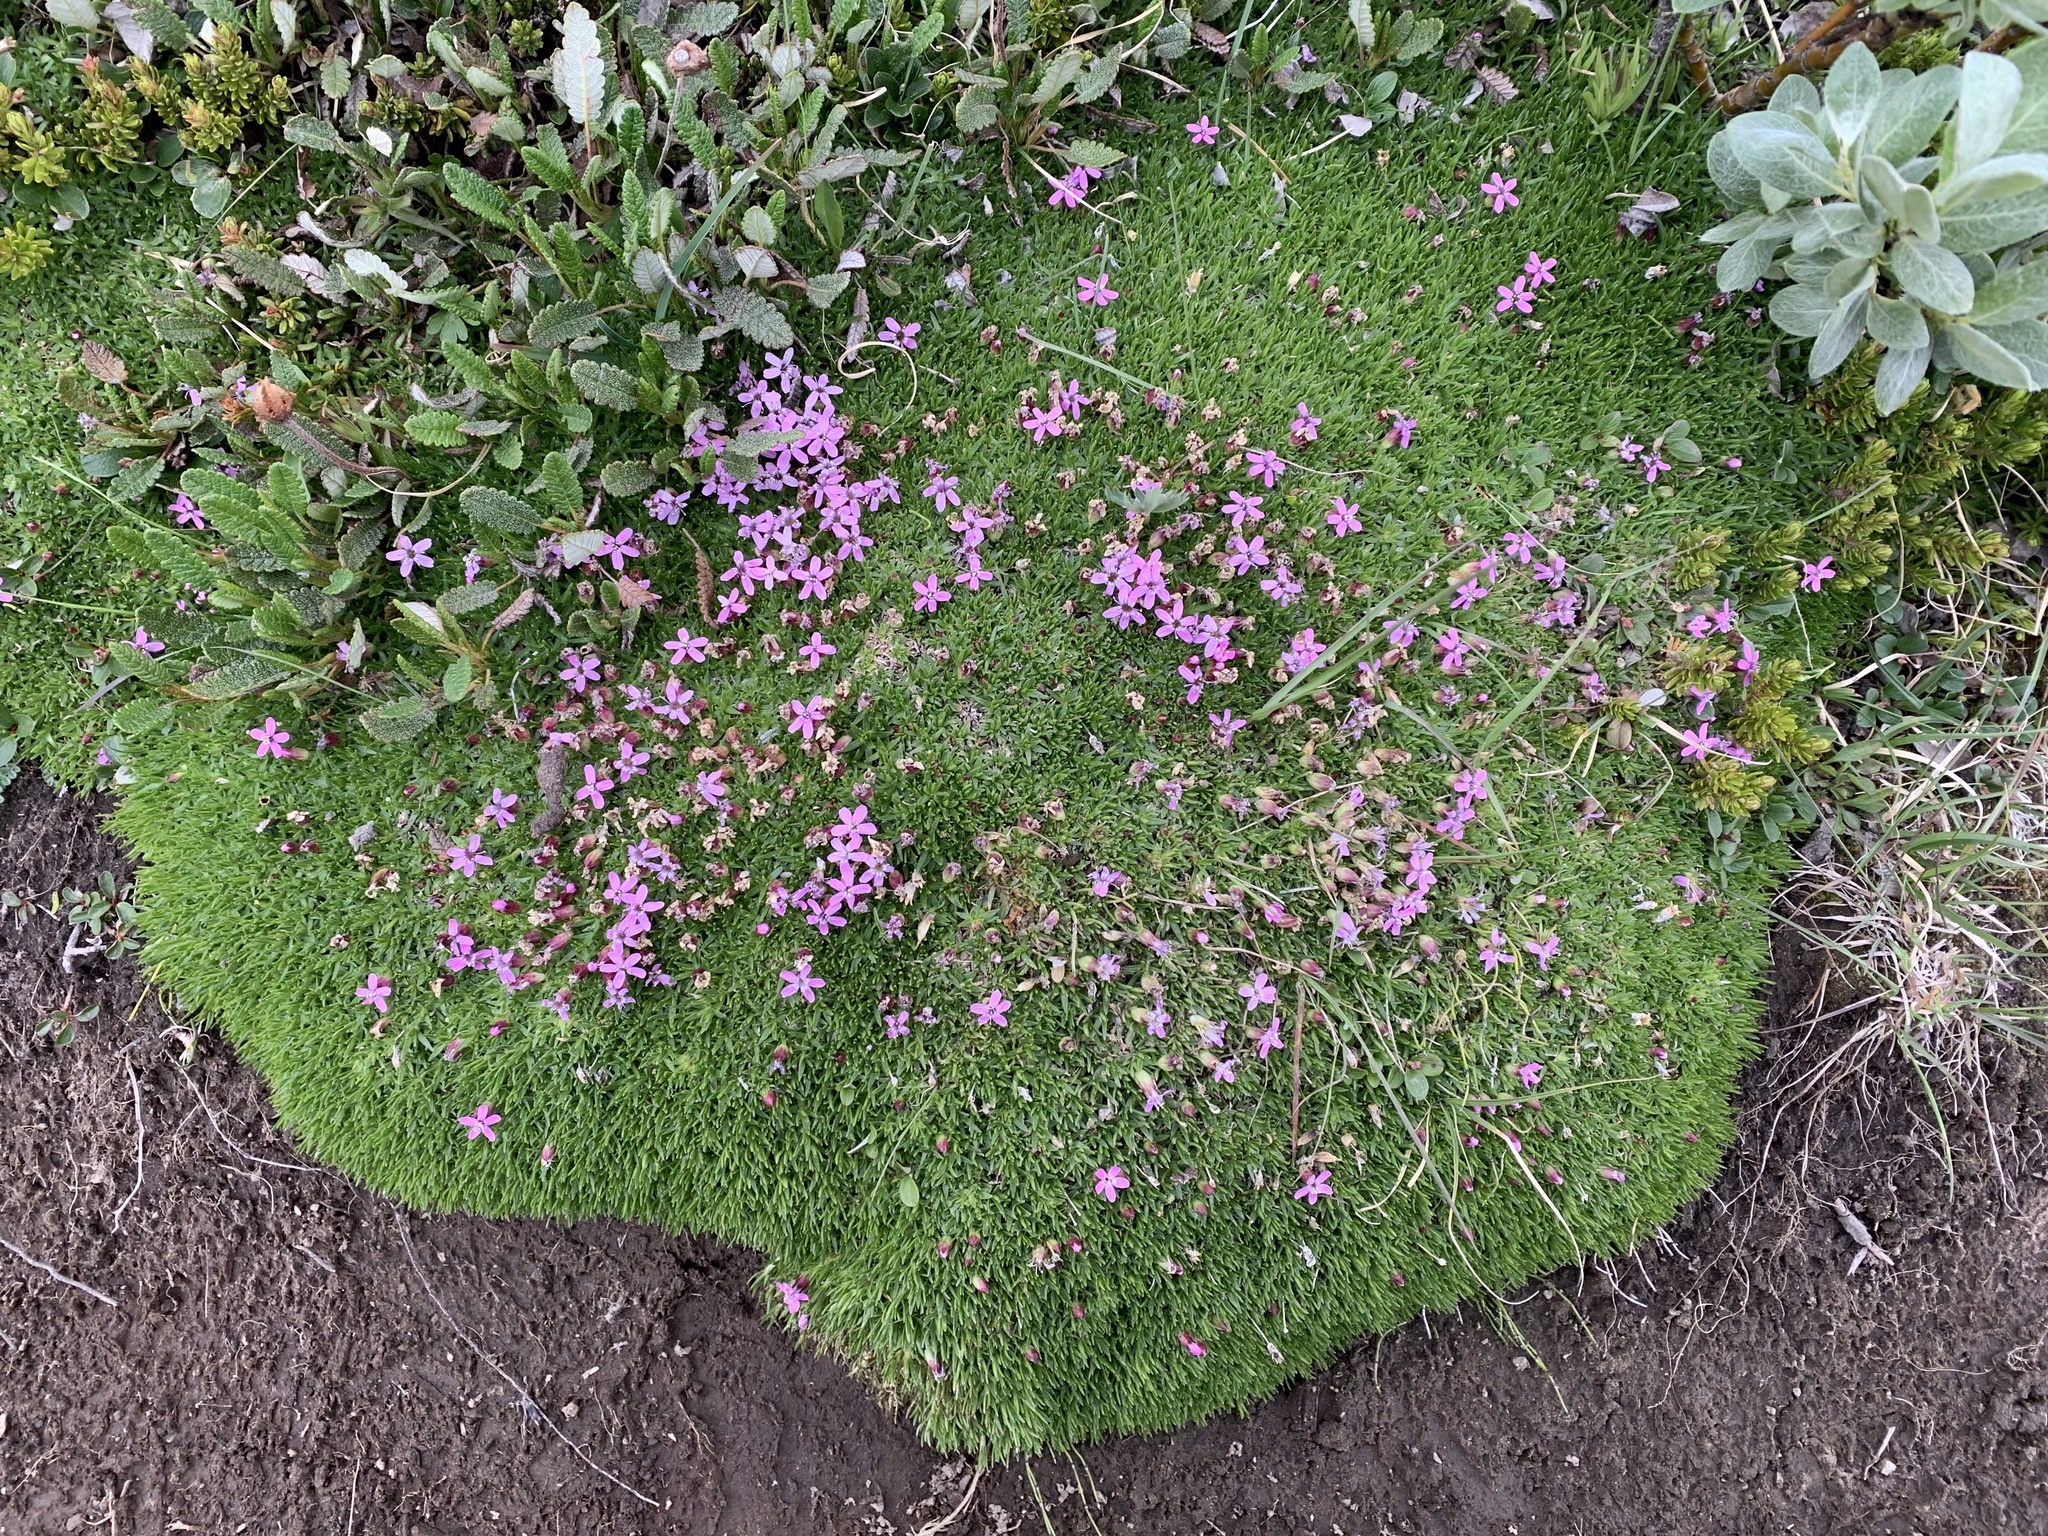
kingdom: Plantae
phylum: Tracheophyta
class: Magnoliopsida
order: Caryophyllales
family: Caryophyllaceae
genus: Silene
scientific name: Silene acaulis
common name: Moss campion
